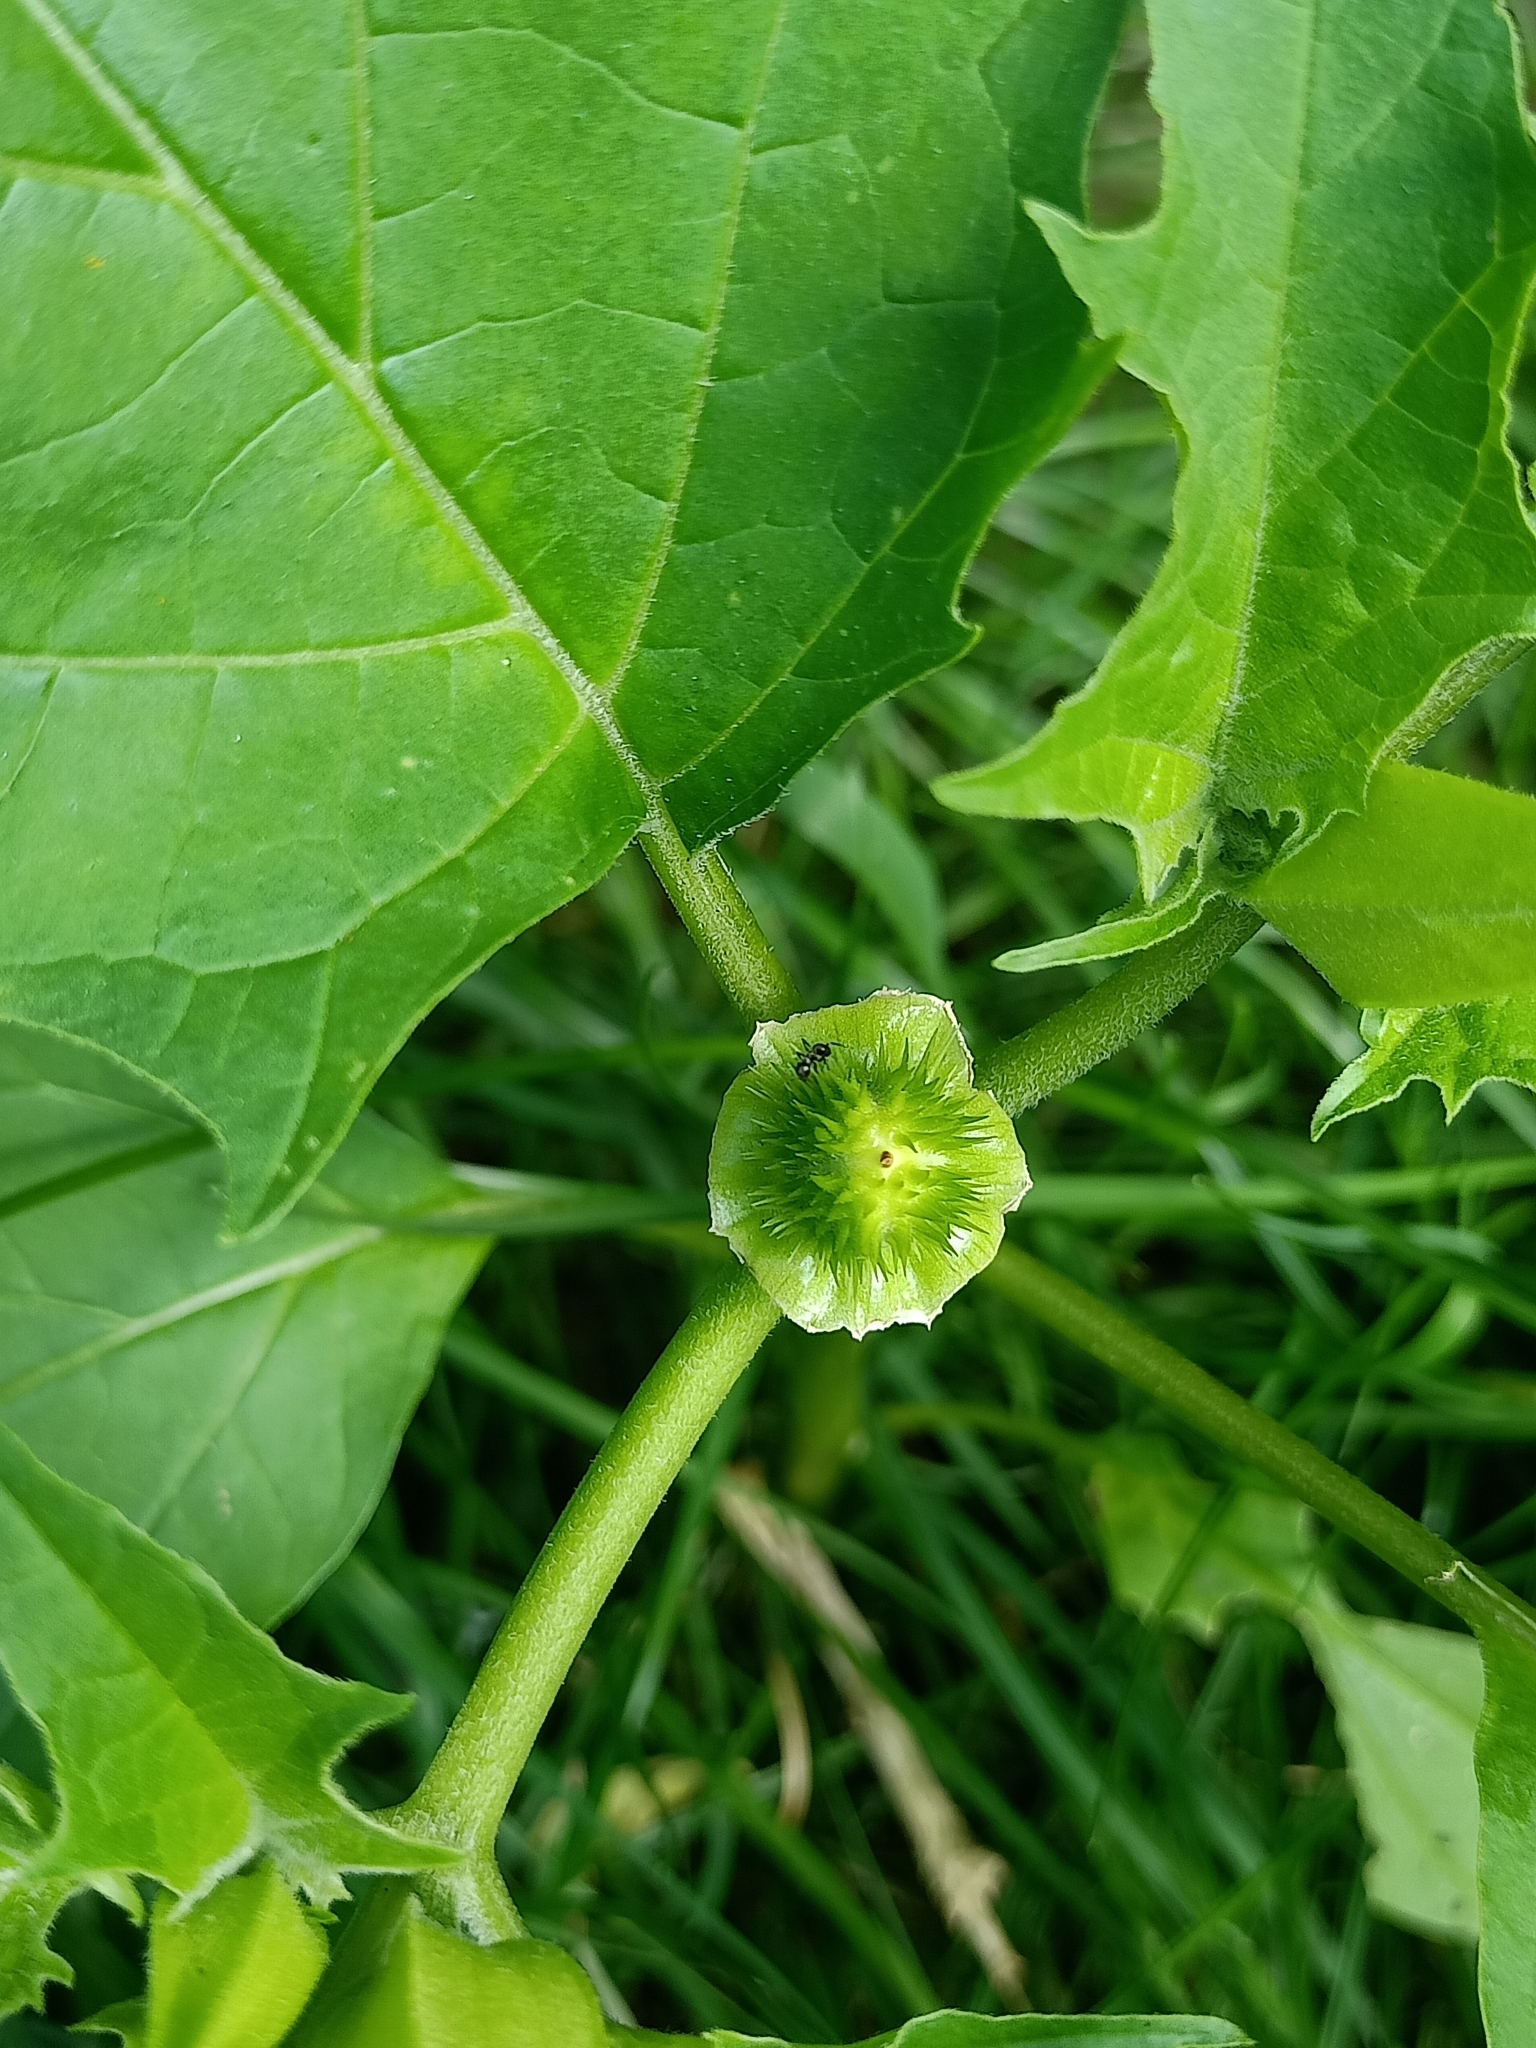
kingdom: Plantae
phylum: Tracheophyta
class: Magnoliopsida
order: Solanales
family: Solanaceae
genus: Datura
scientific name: Datura stramonium
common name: Thorn-apple
